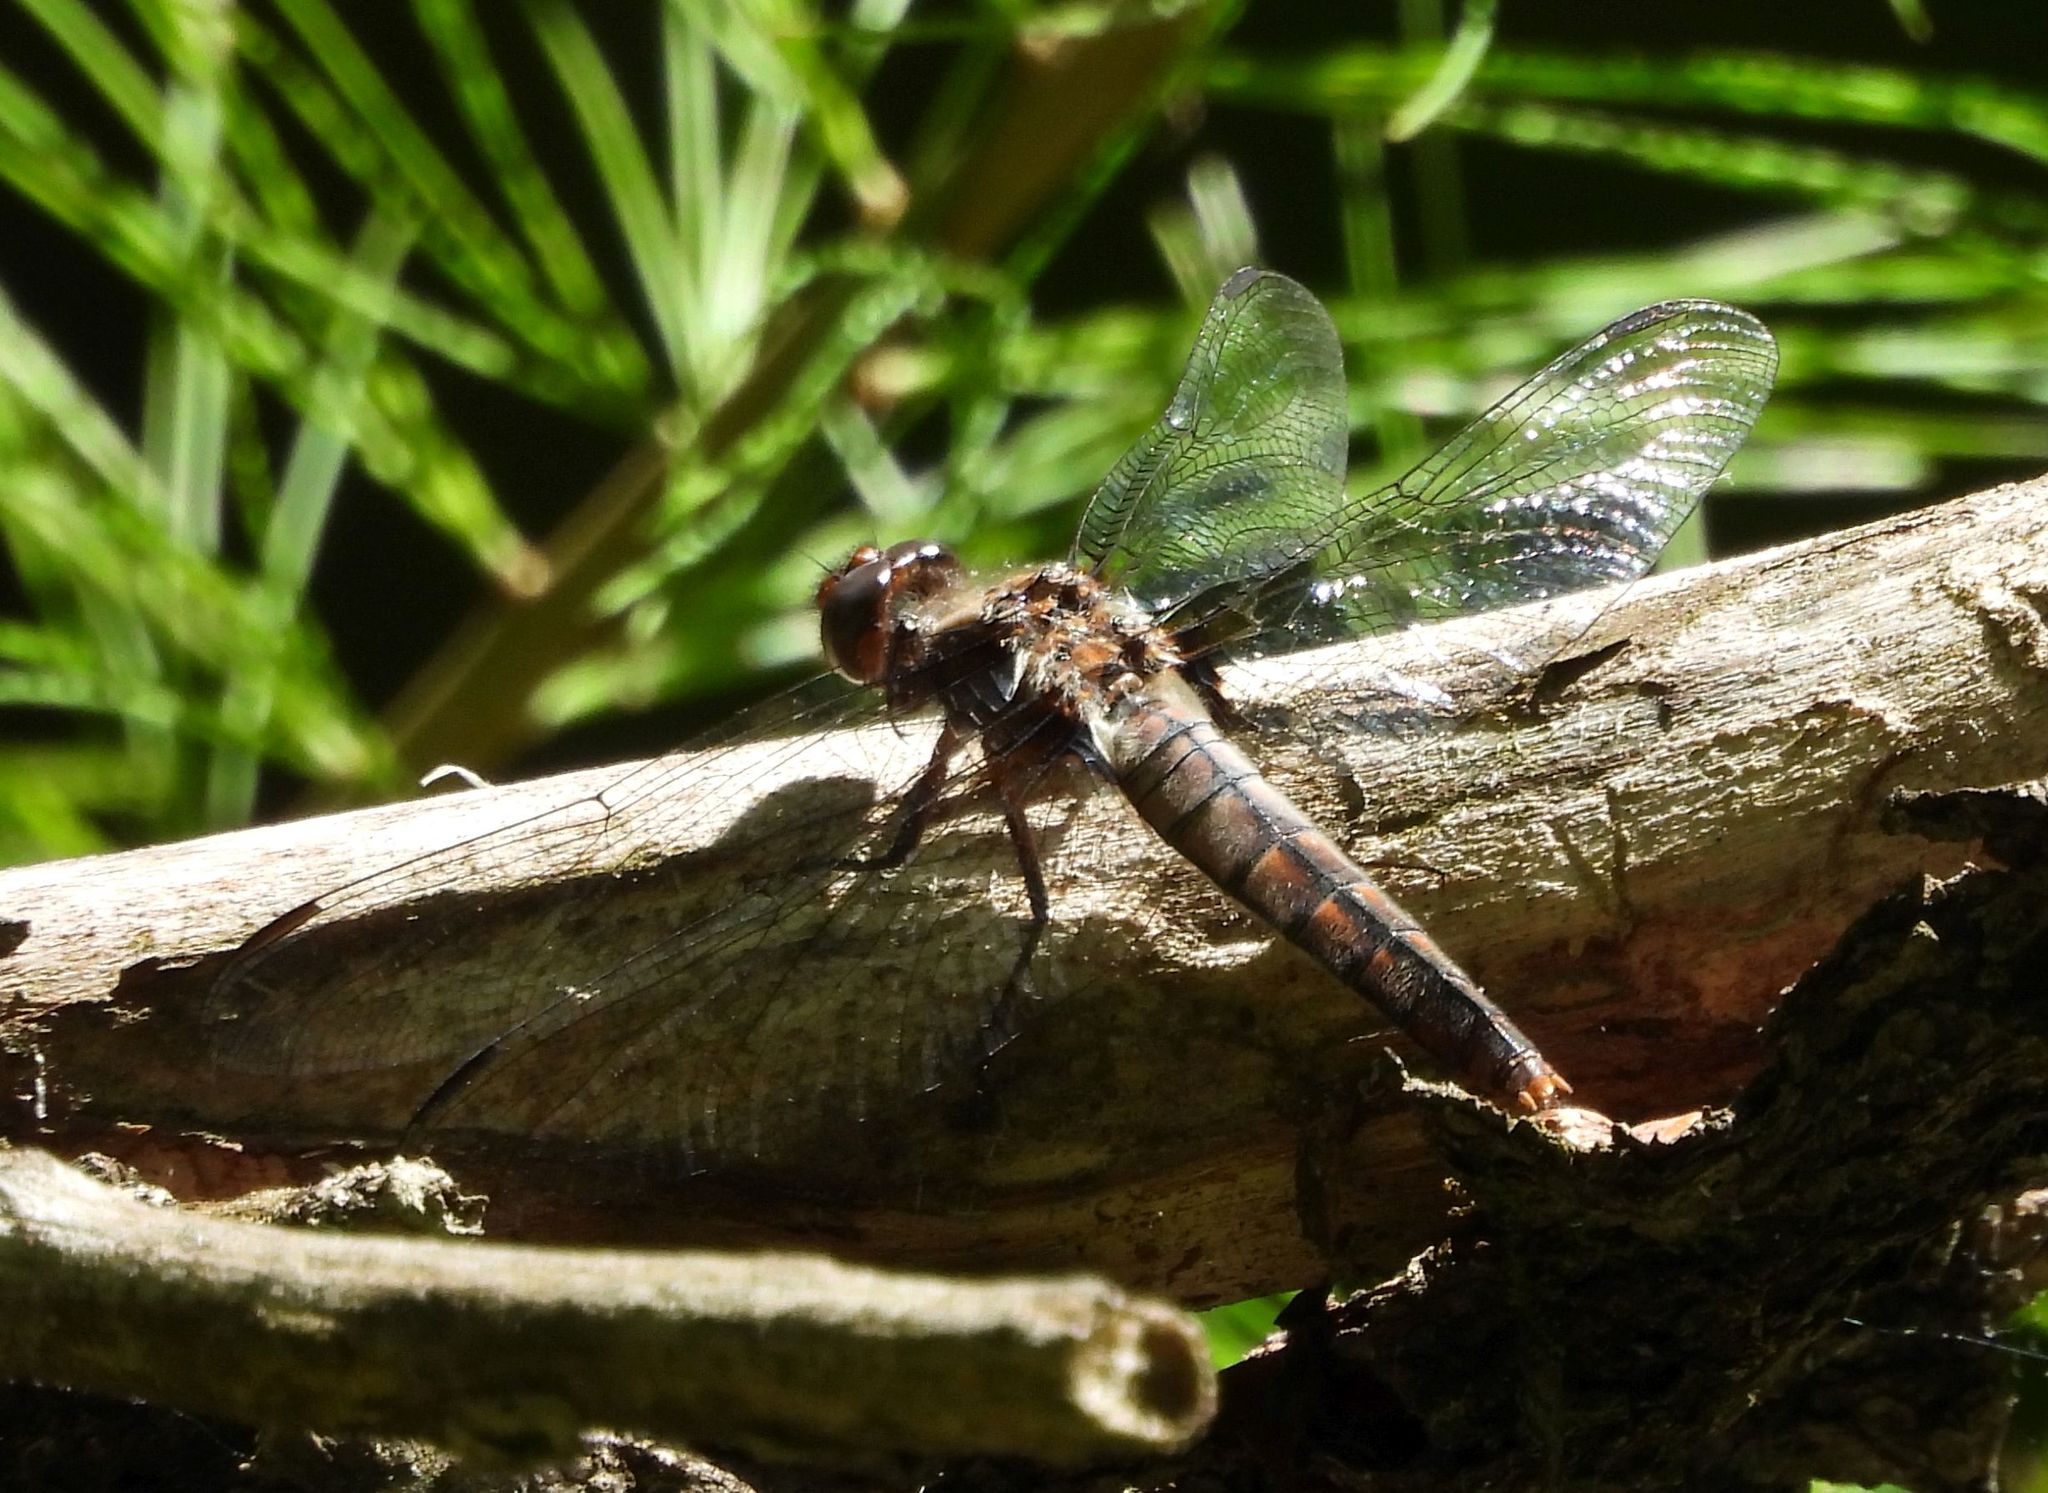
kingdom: Animalia
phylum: Arthropoda
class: Insecta
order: Odonata
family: Libellulidae
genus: Ladona
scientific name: Ladona julia
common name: Chalk-fronted corporal
